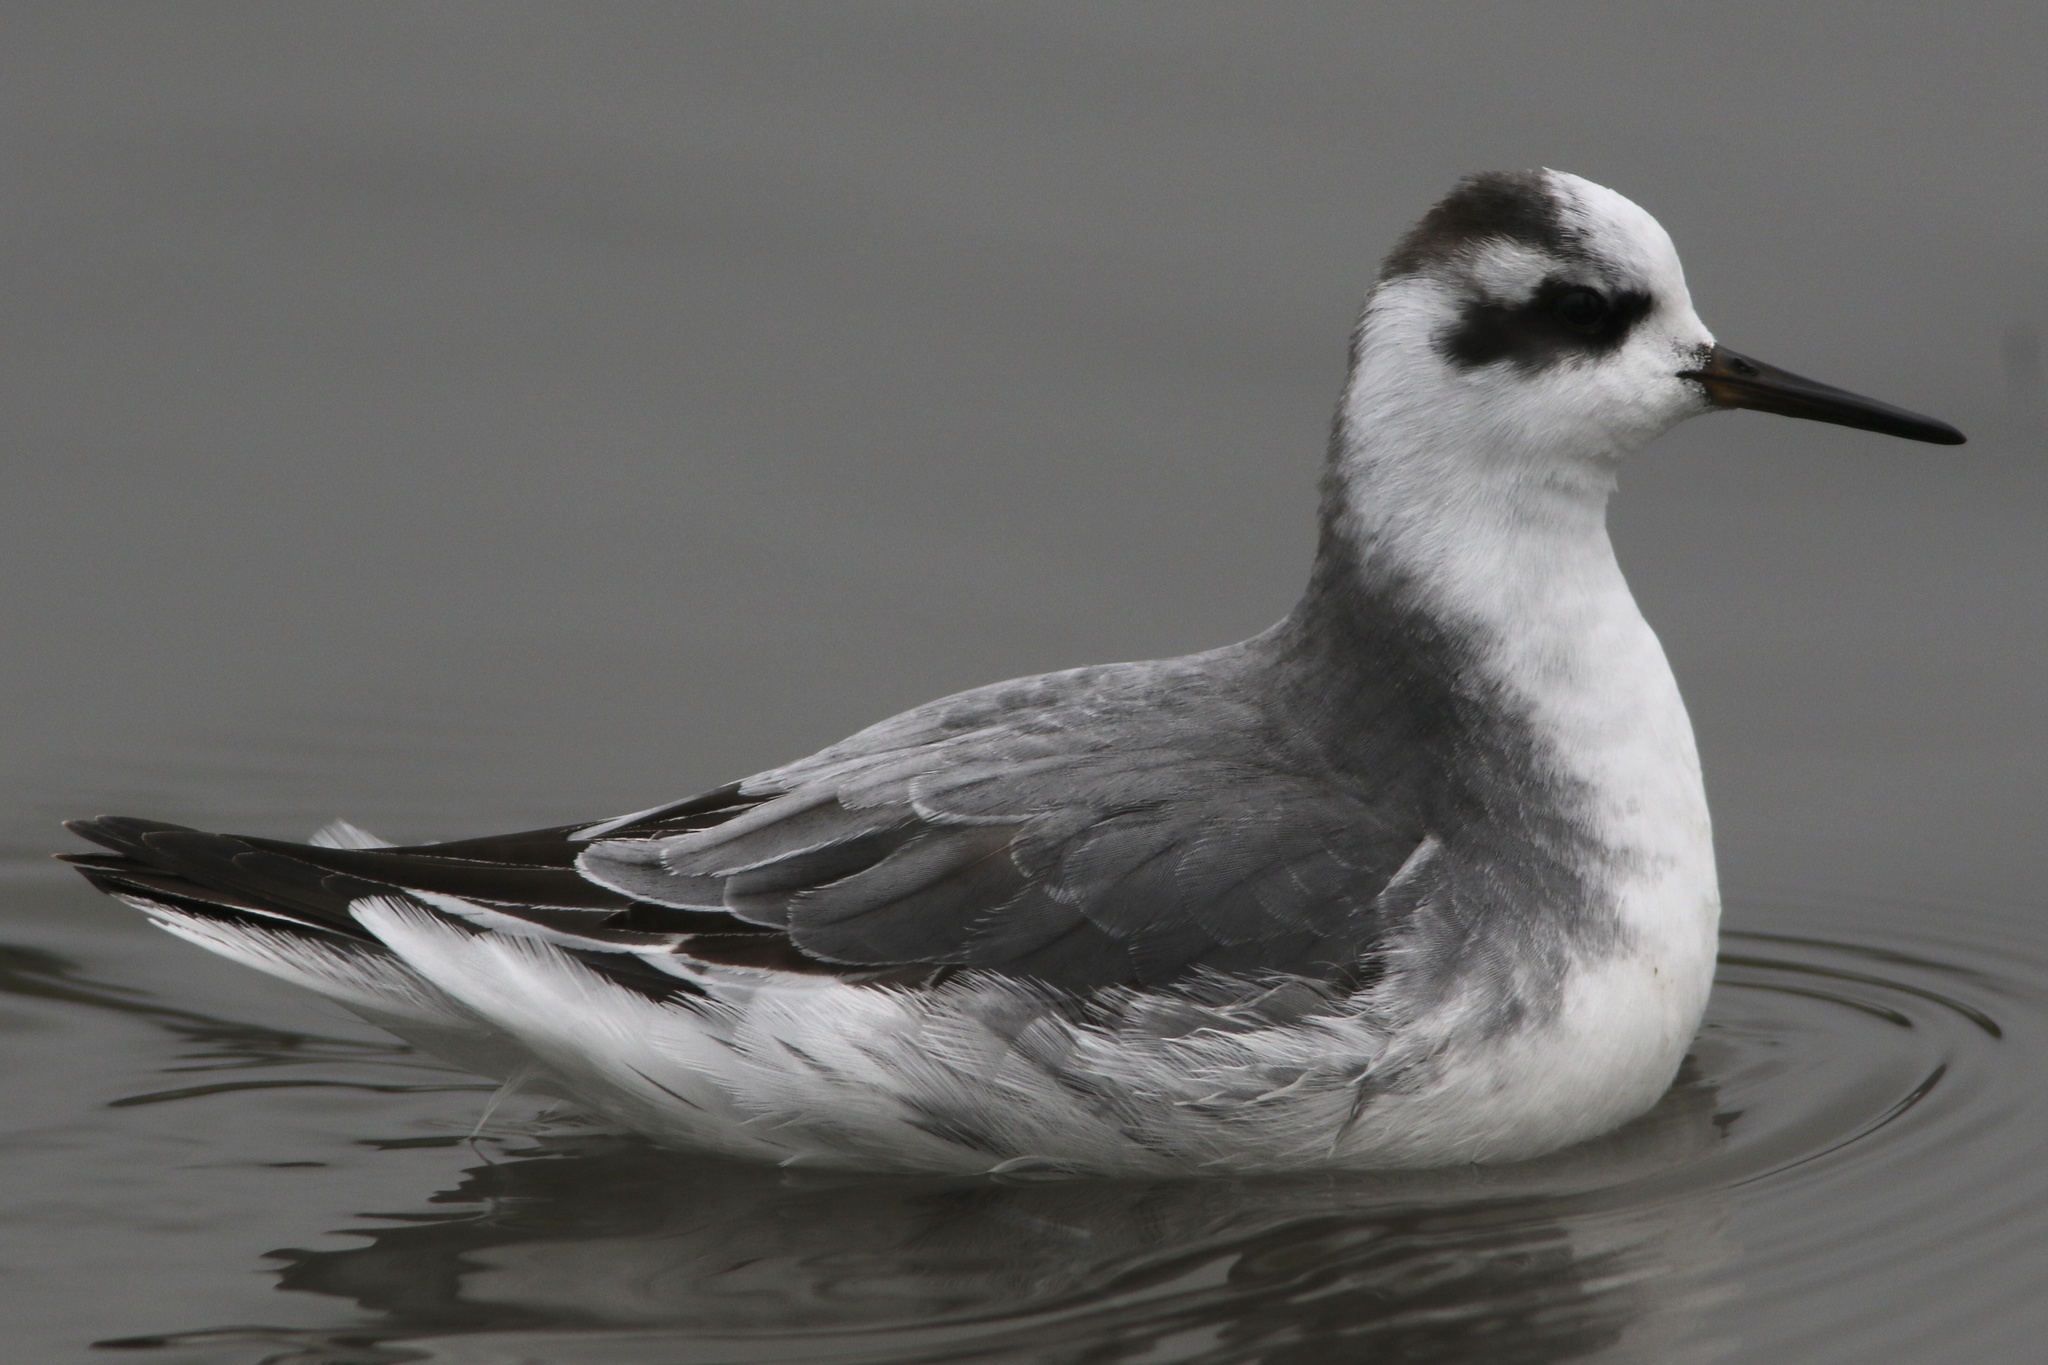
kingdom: Animalia
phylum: Chordata
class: Aves
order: Charadriiformes
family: Scolopacidae
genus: Phalaropus
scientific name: Phalaropus fulicarius
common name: Red phalarope
